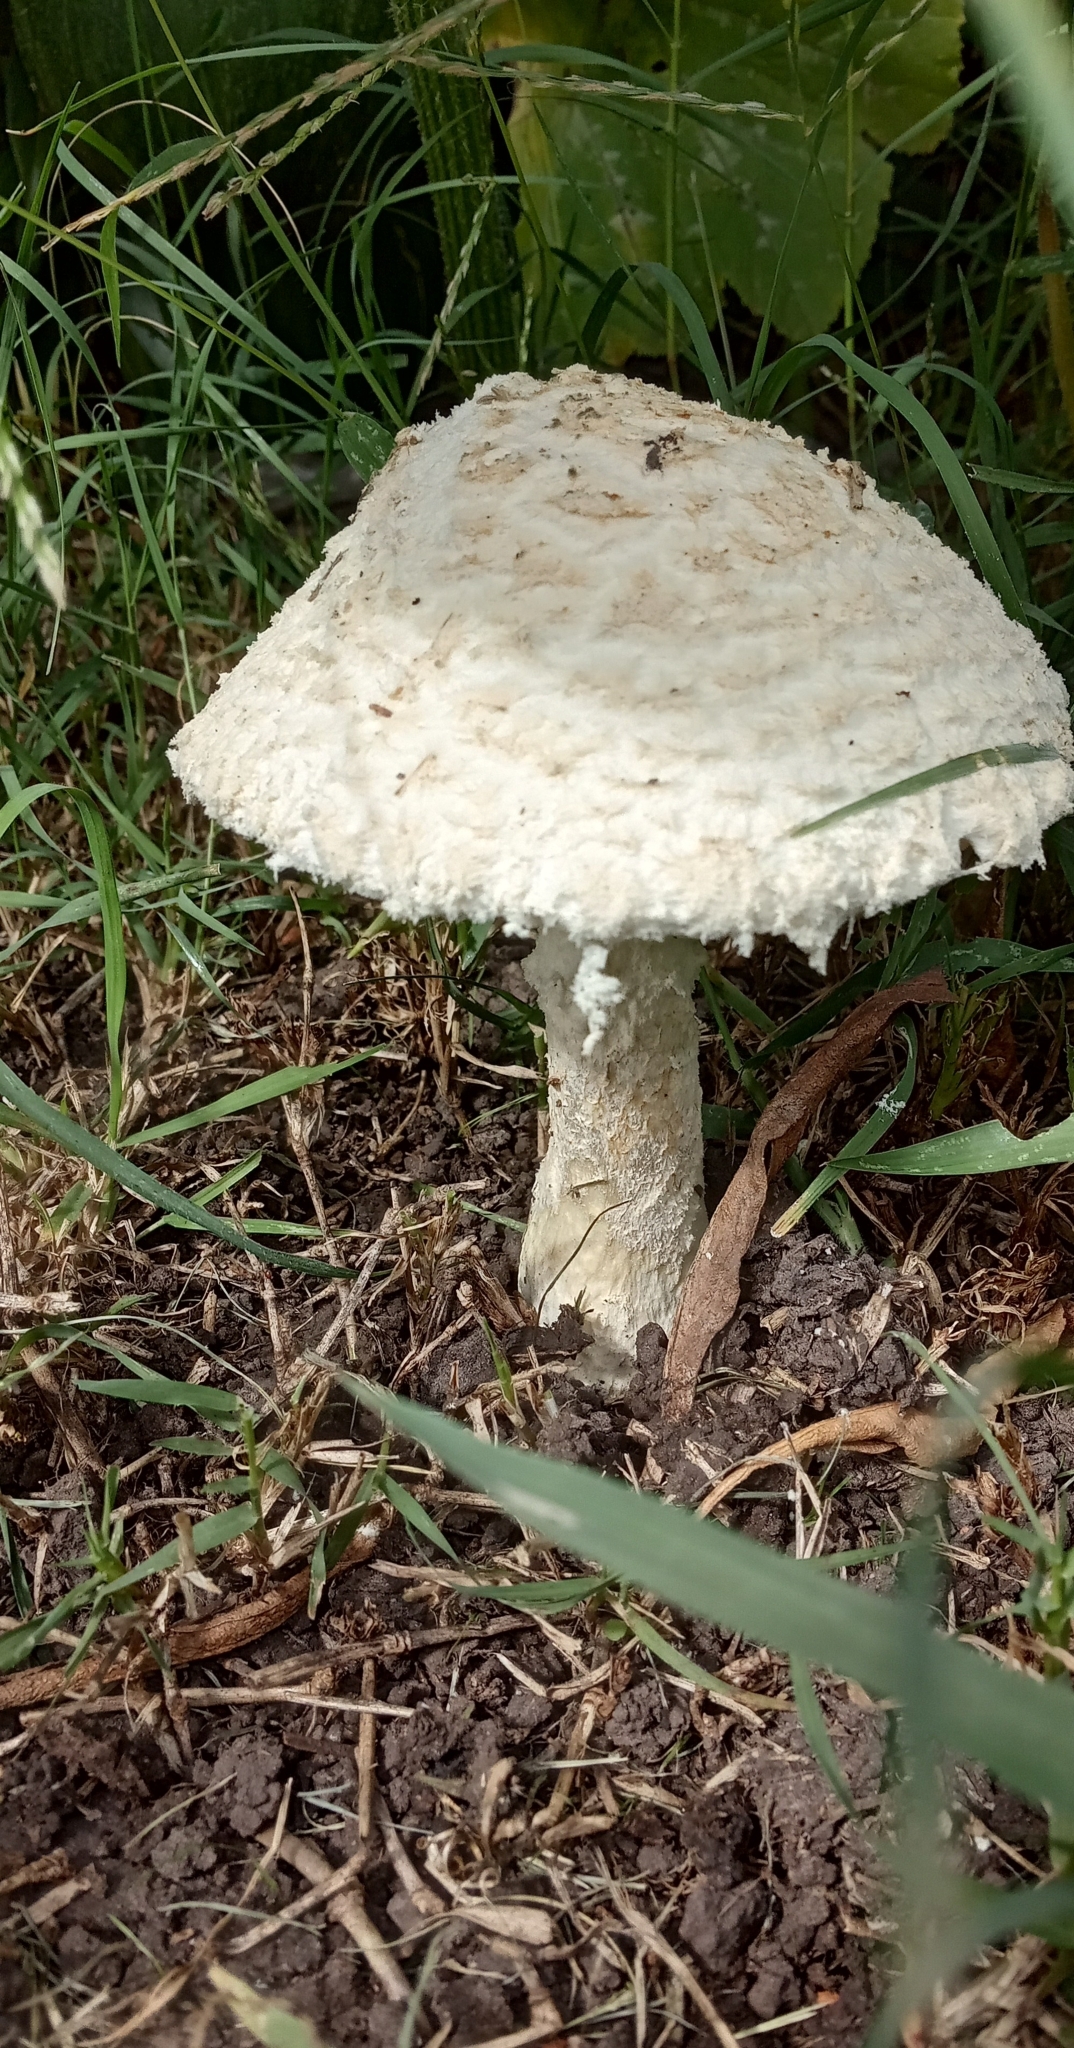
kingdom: Fungi
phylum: Basidiomycota
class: Agaricomycetes
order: Agaricales
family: Amanitaceae
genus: Aspidella
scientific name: Aspidella foetens
